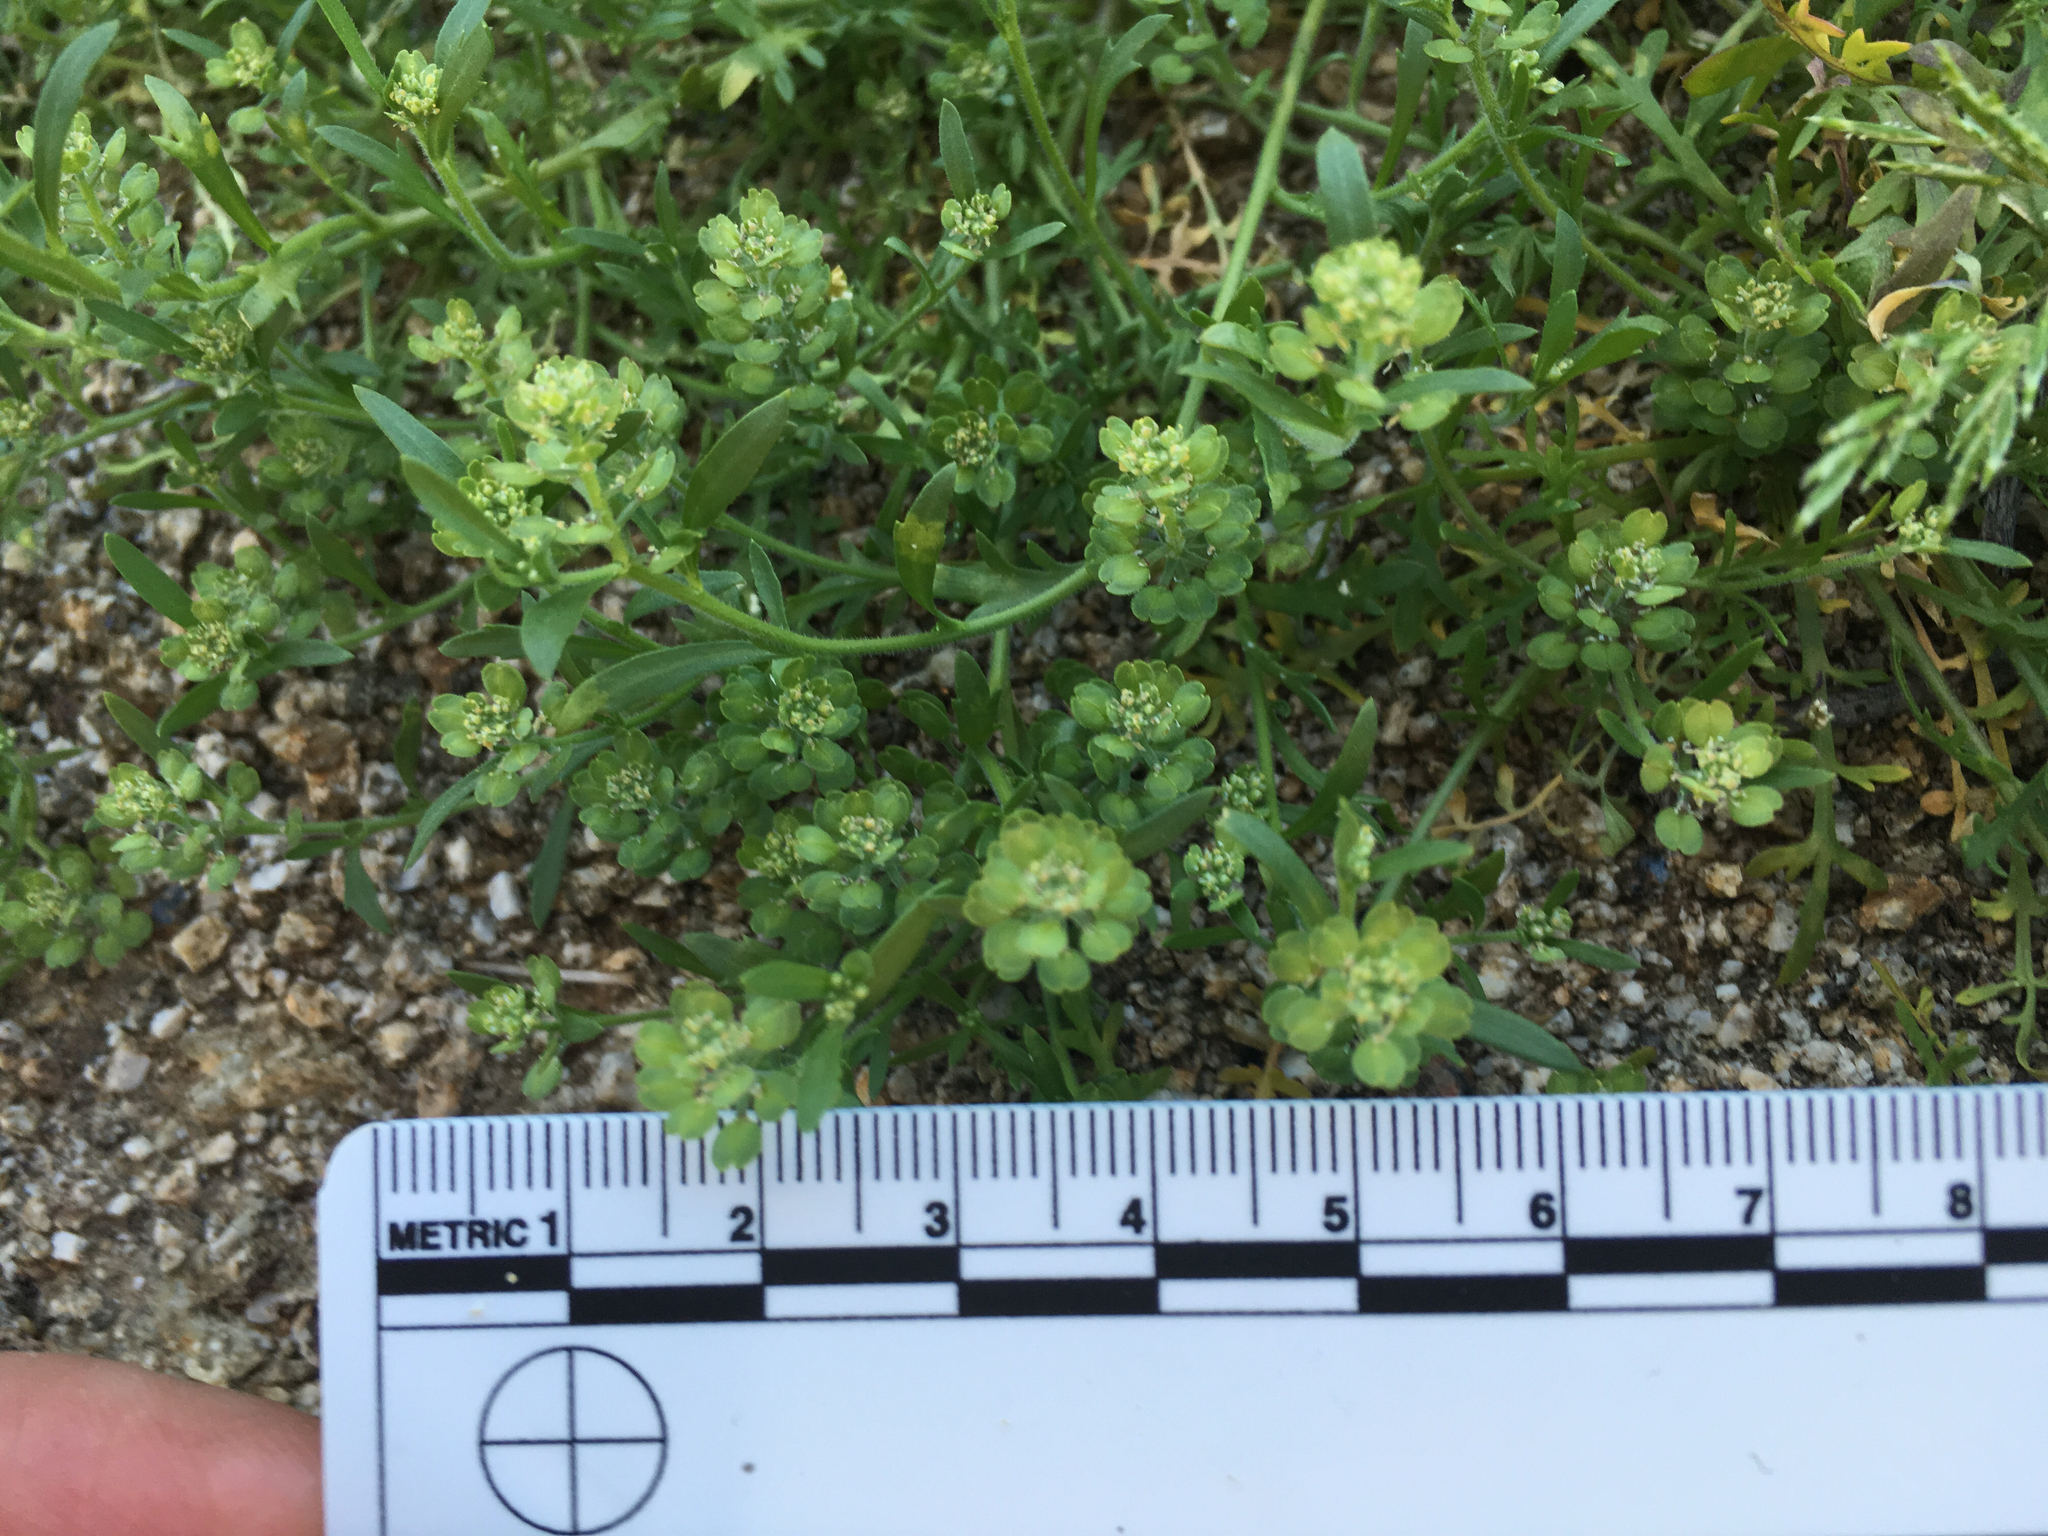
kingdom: Plantae
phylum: Tracheophyta
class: Magnoliopsida
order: Brassicales
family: Brassicaceae
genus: Lepidium
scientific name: Lepidium lasiocarpum
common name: Hairy-pod pepperwort
